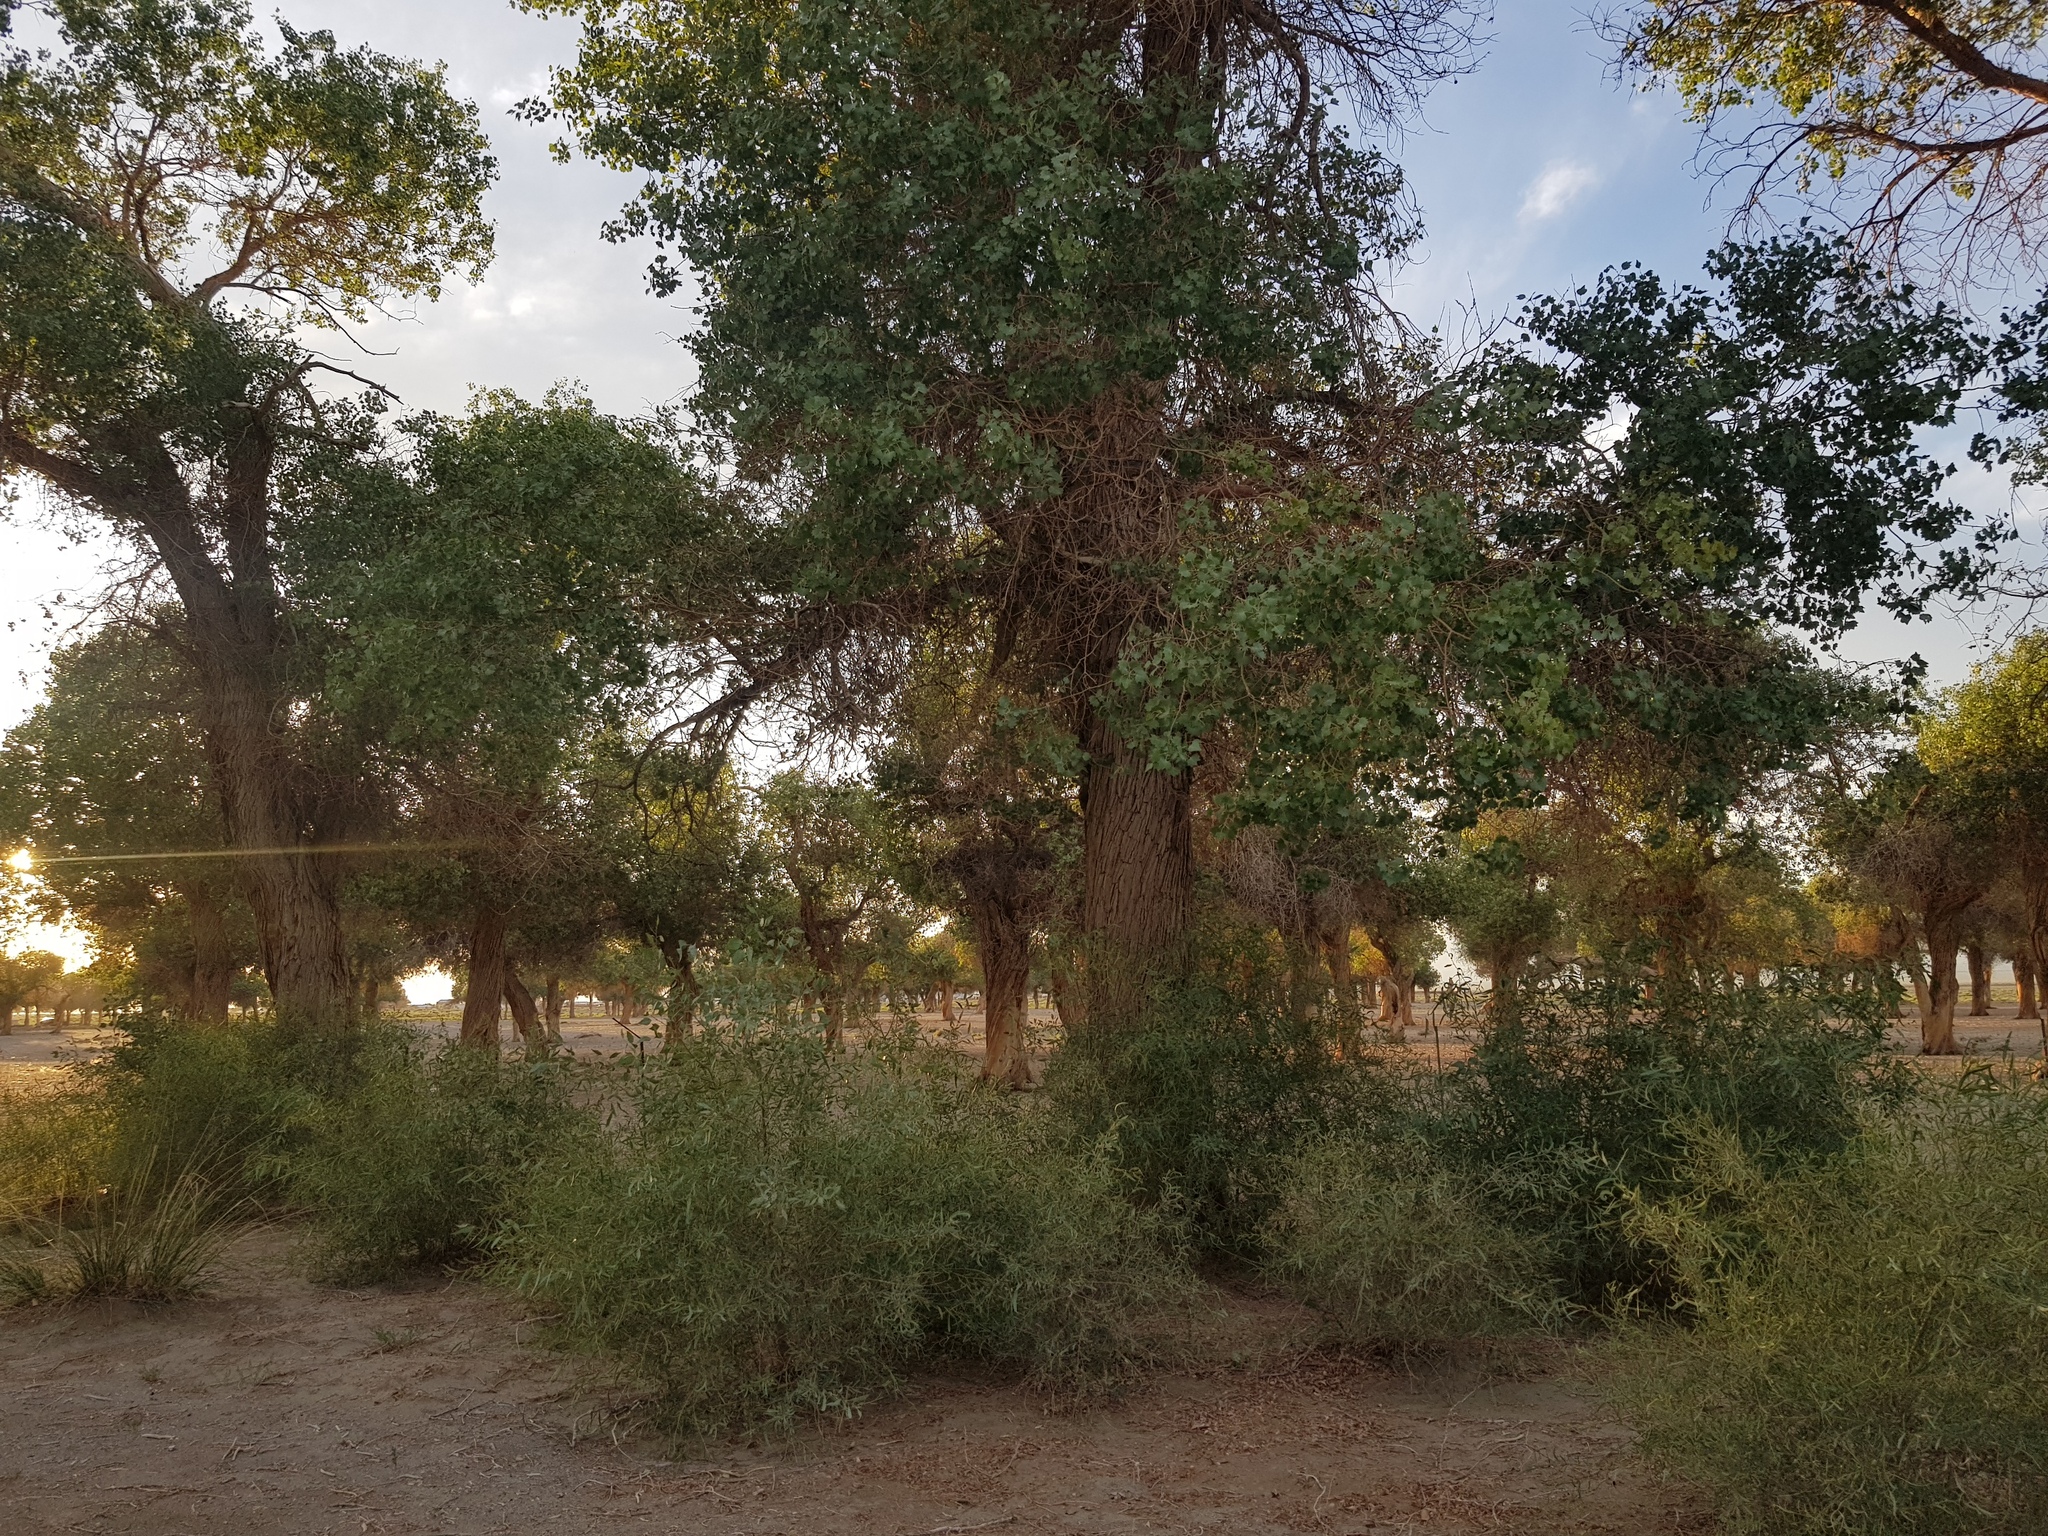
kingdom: Plantae
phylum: Tracheophyta
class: Magnoliopsida
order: Malpighiales
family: Salicaceae
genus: Populus
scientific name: Populus euphratica
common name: Euphrates poplar
